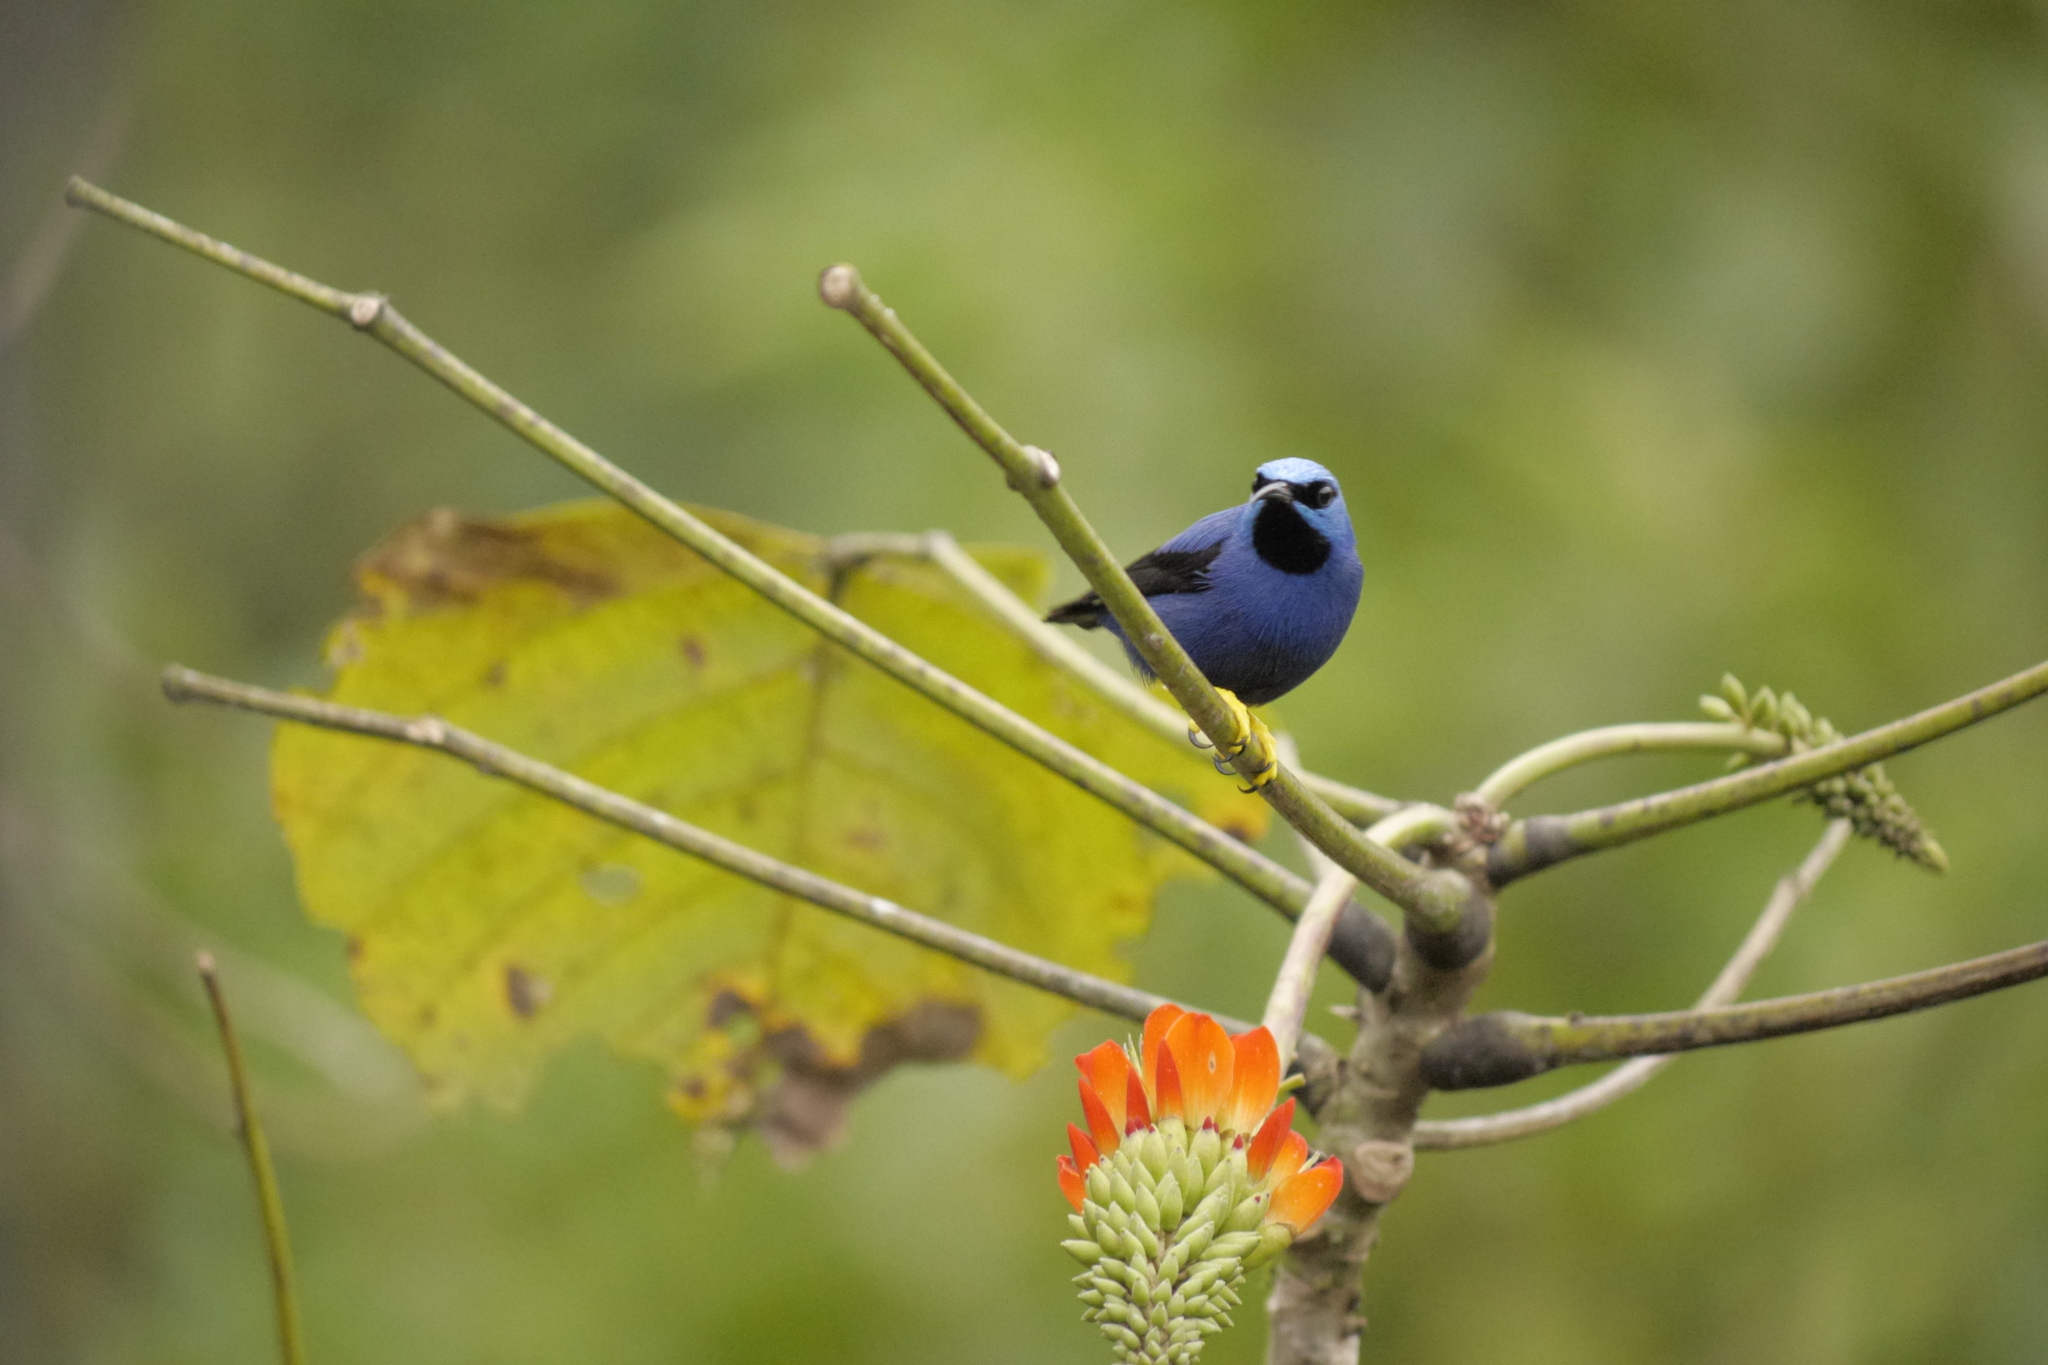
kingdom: Animalia
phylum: Chordata
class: Aves
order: Passeriformes
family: Thraupidae
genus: Cyanerpes
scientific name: Cyanerpes caeruleus
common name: Purple honeycreeper
